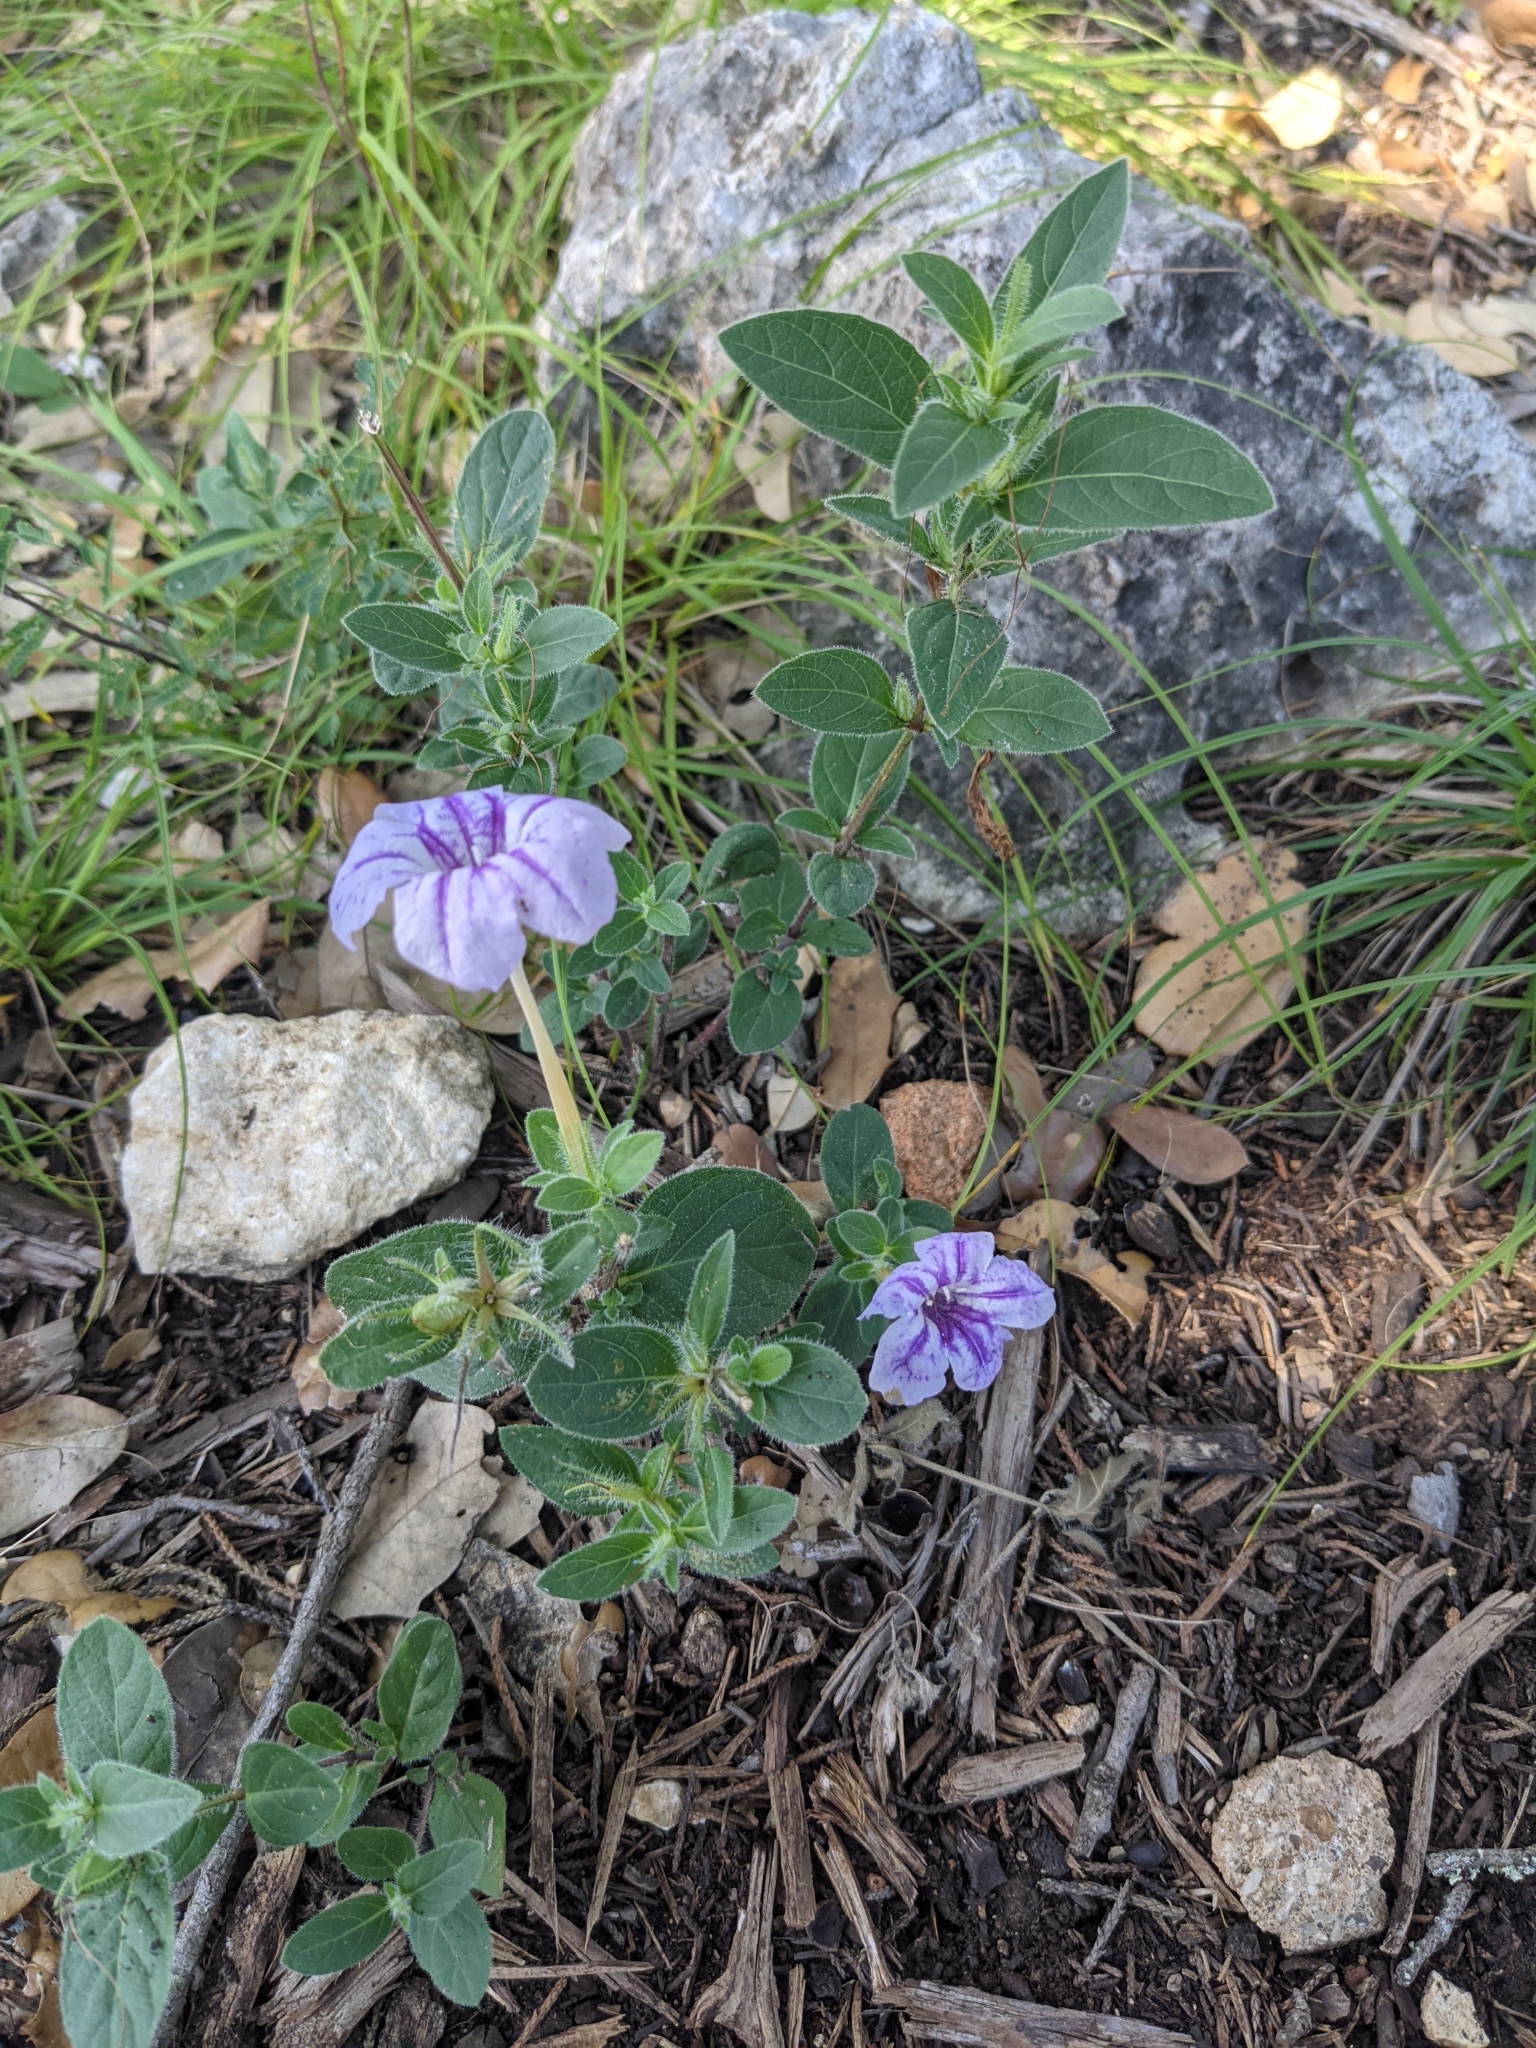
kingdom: Plantae
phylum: Tracheophyta
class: Magnoliopsida
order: Lamiales
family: Acanthaceae
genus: Ruellia
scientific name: Ruellia humilis
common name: Fringe-leaf ruellia
